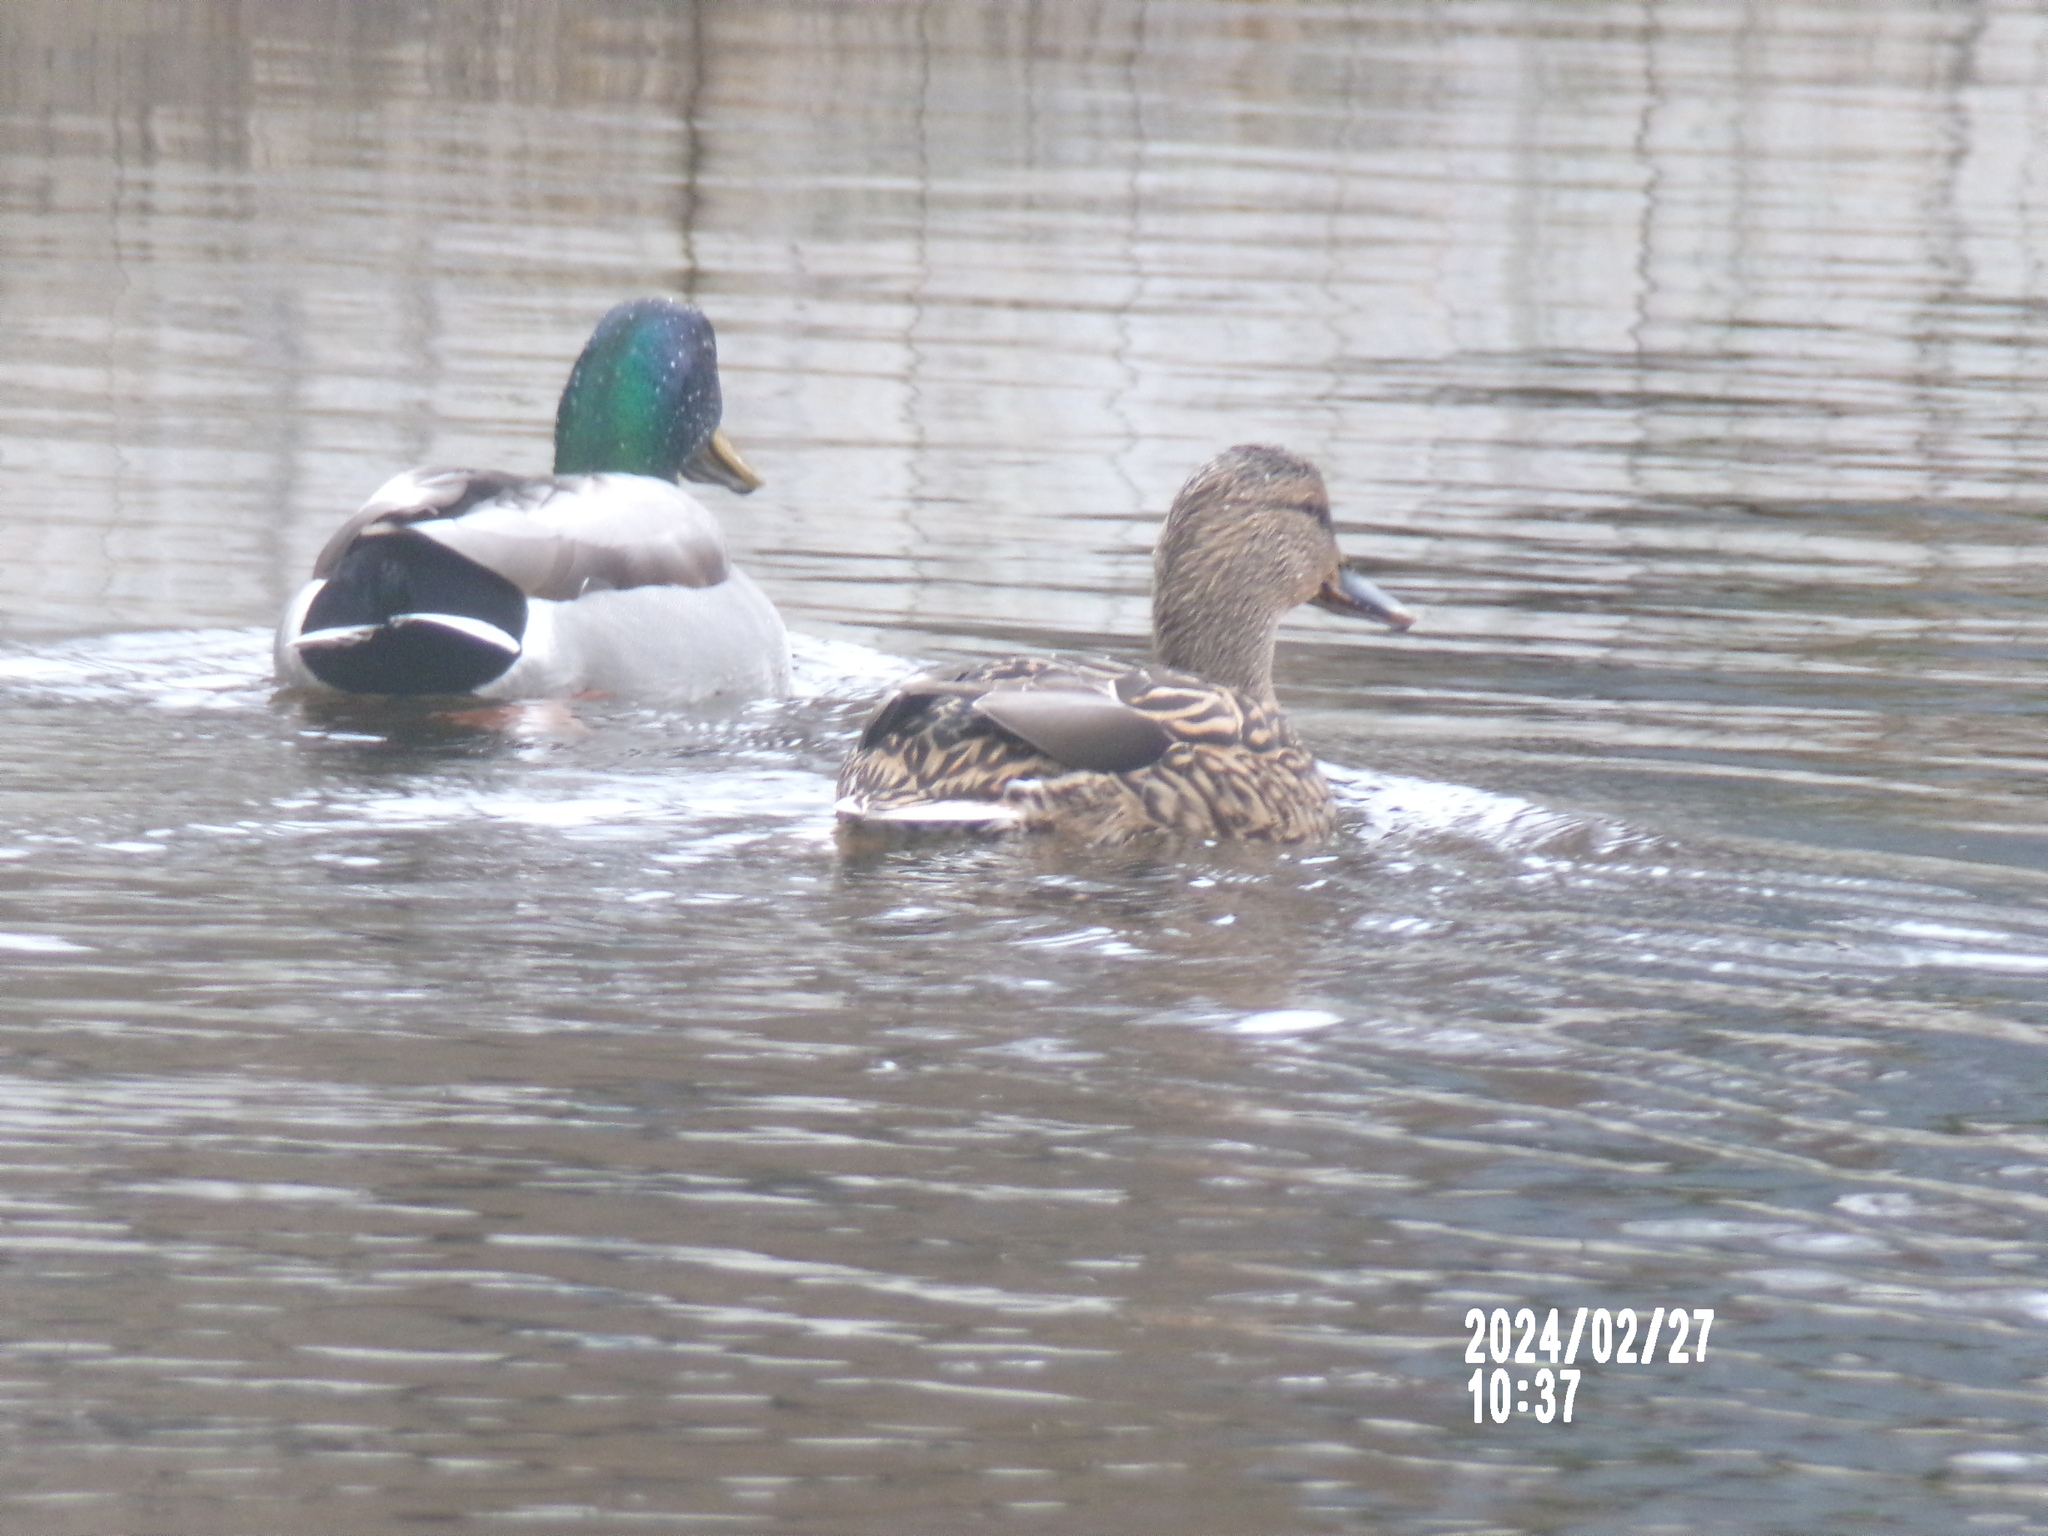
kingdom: Animalia
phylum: Chordata
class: Aves
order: Anseriformes
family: Anatidae
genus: Anas
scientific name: Anas platyrhynchos
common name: Mallard
